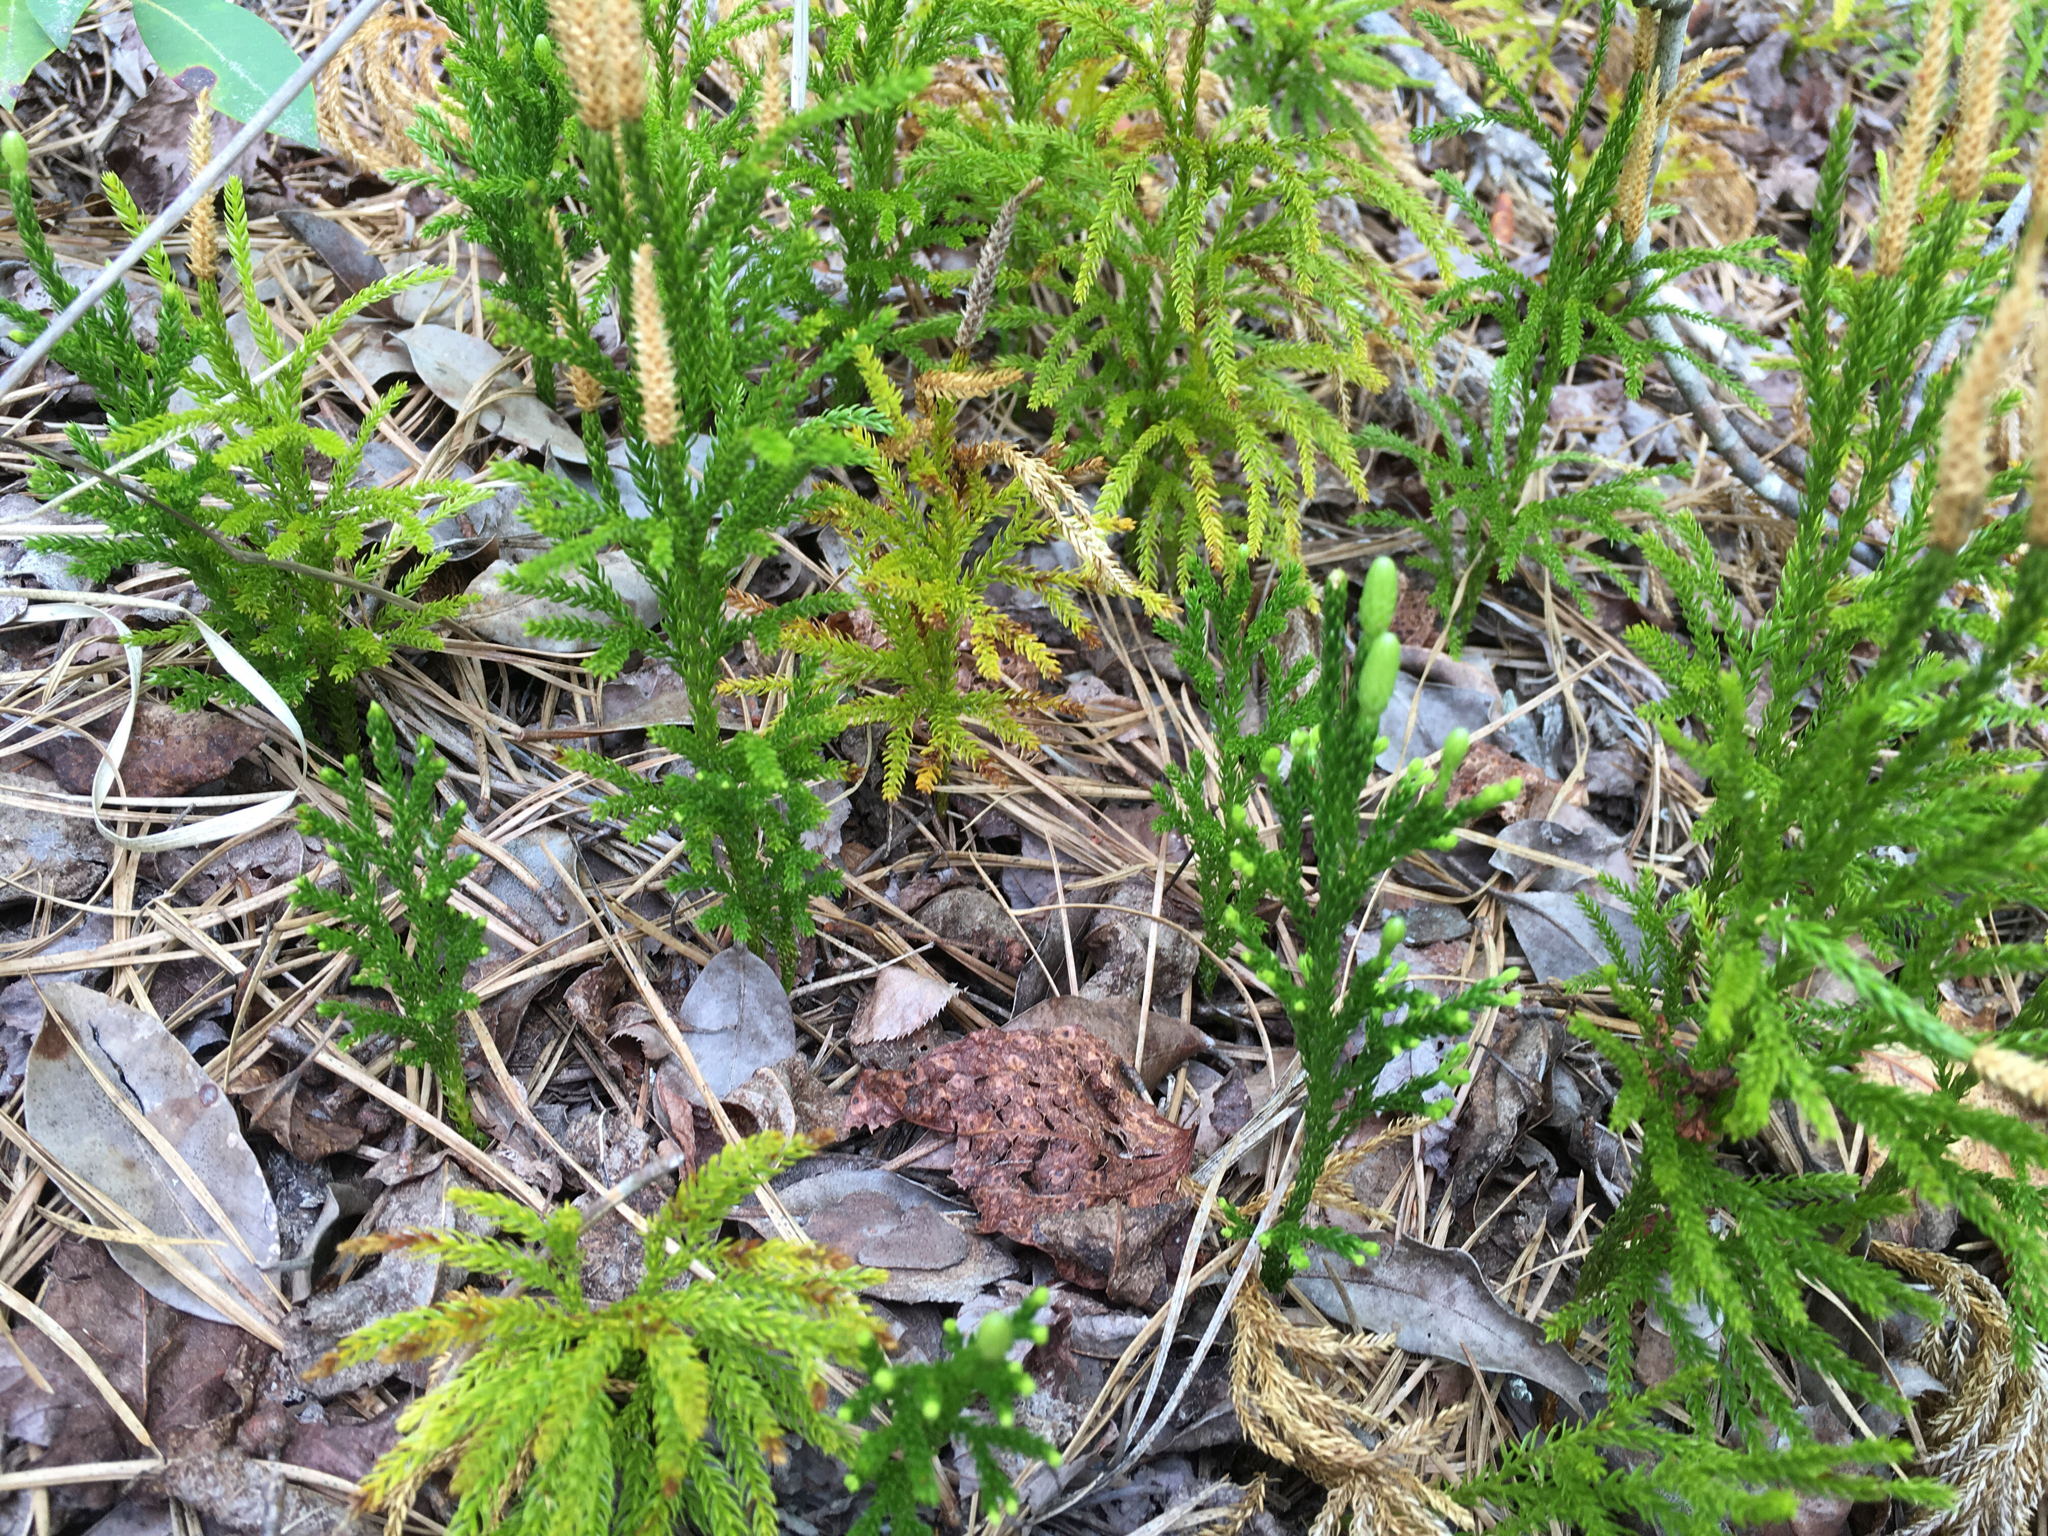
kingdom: Plantae
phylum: Tracheophyta
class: Lycopodiopsida
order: Lycopodiales
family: Lycopodiaceae
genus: Dendrolycopodium
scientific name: Dendrolycopodium hickeyi
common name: Hickey's clubmoss
